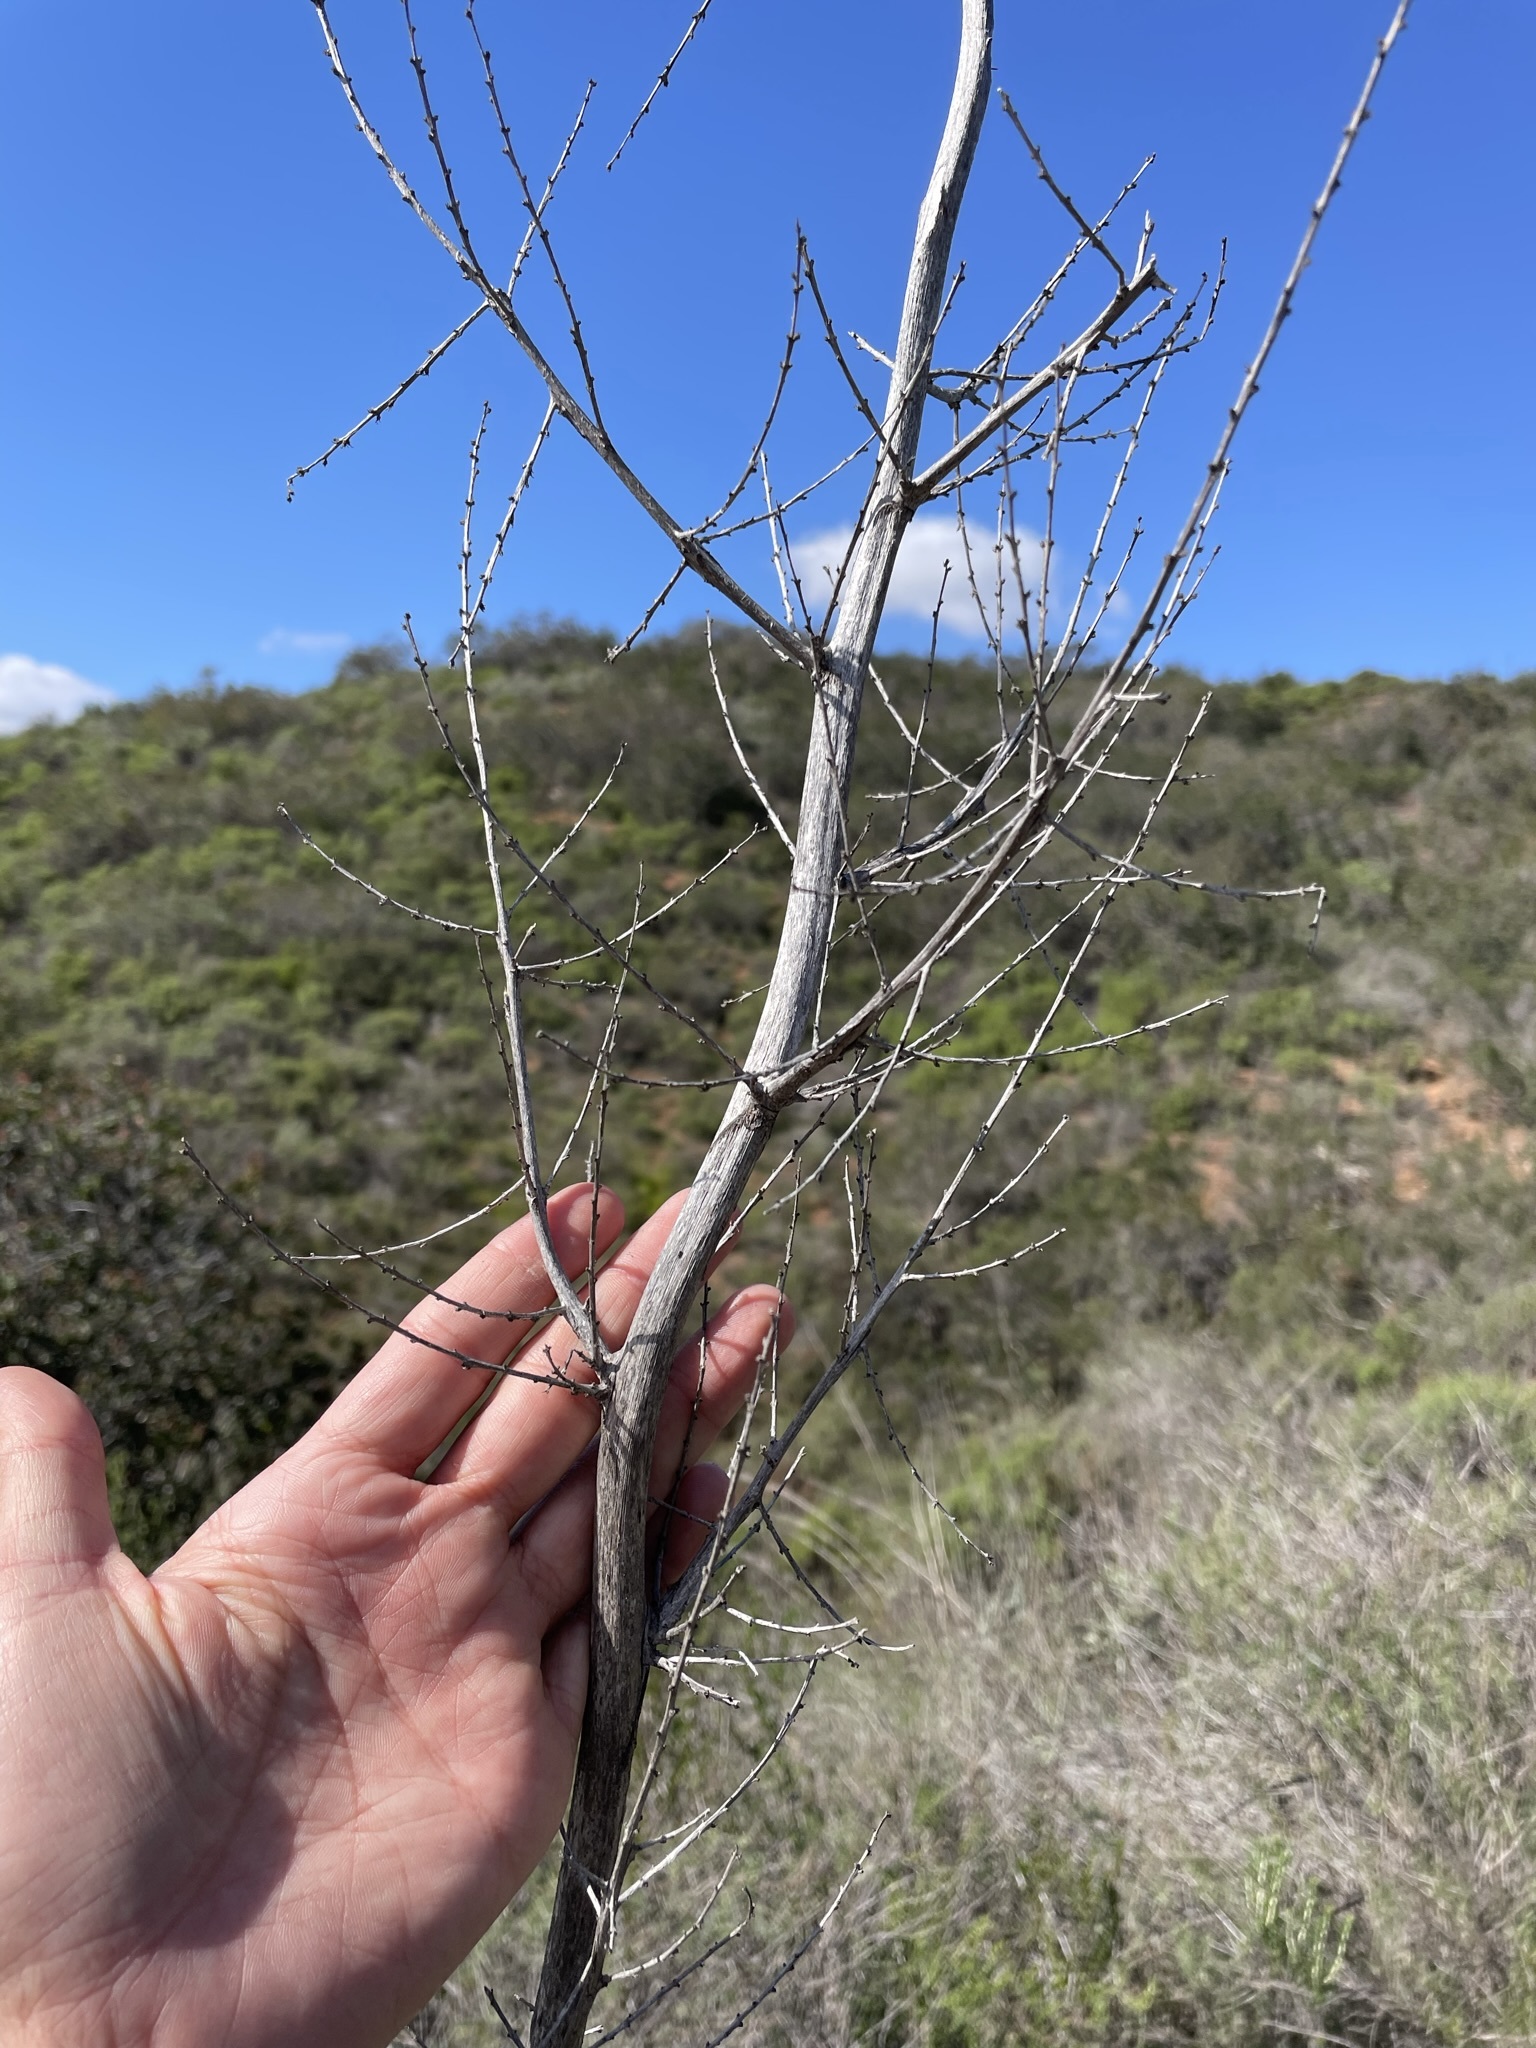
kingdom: Plantae
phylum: Tracheophyta
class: Liliopsida
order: Asparagales
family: Asparagaceae
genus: Nolina
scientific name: Nolina interrata
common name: Dehesa bear-grass
